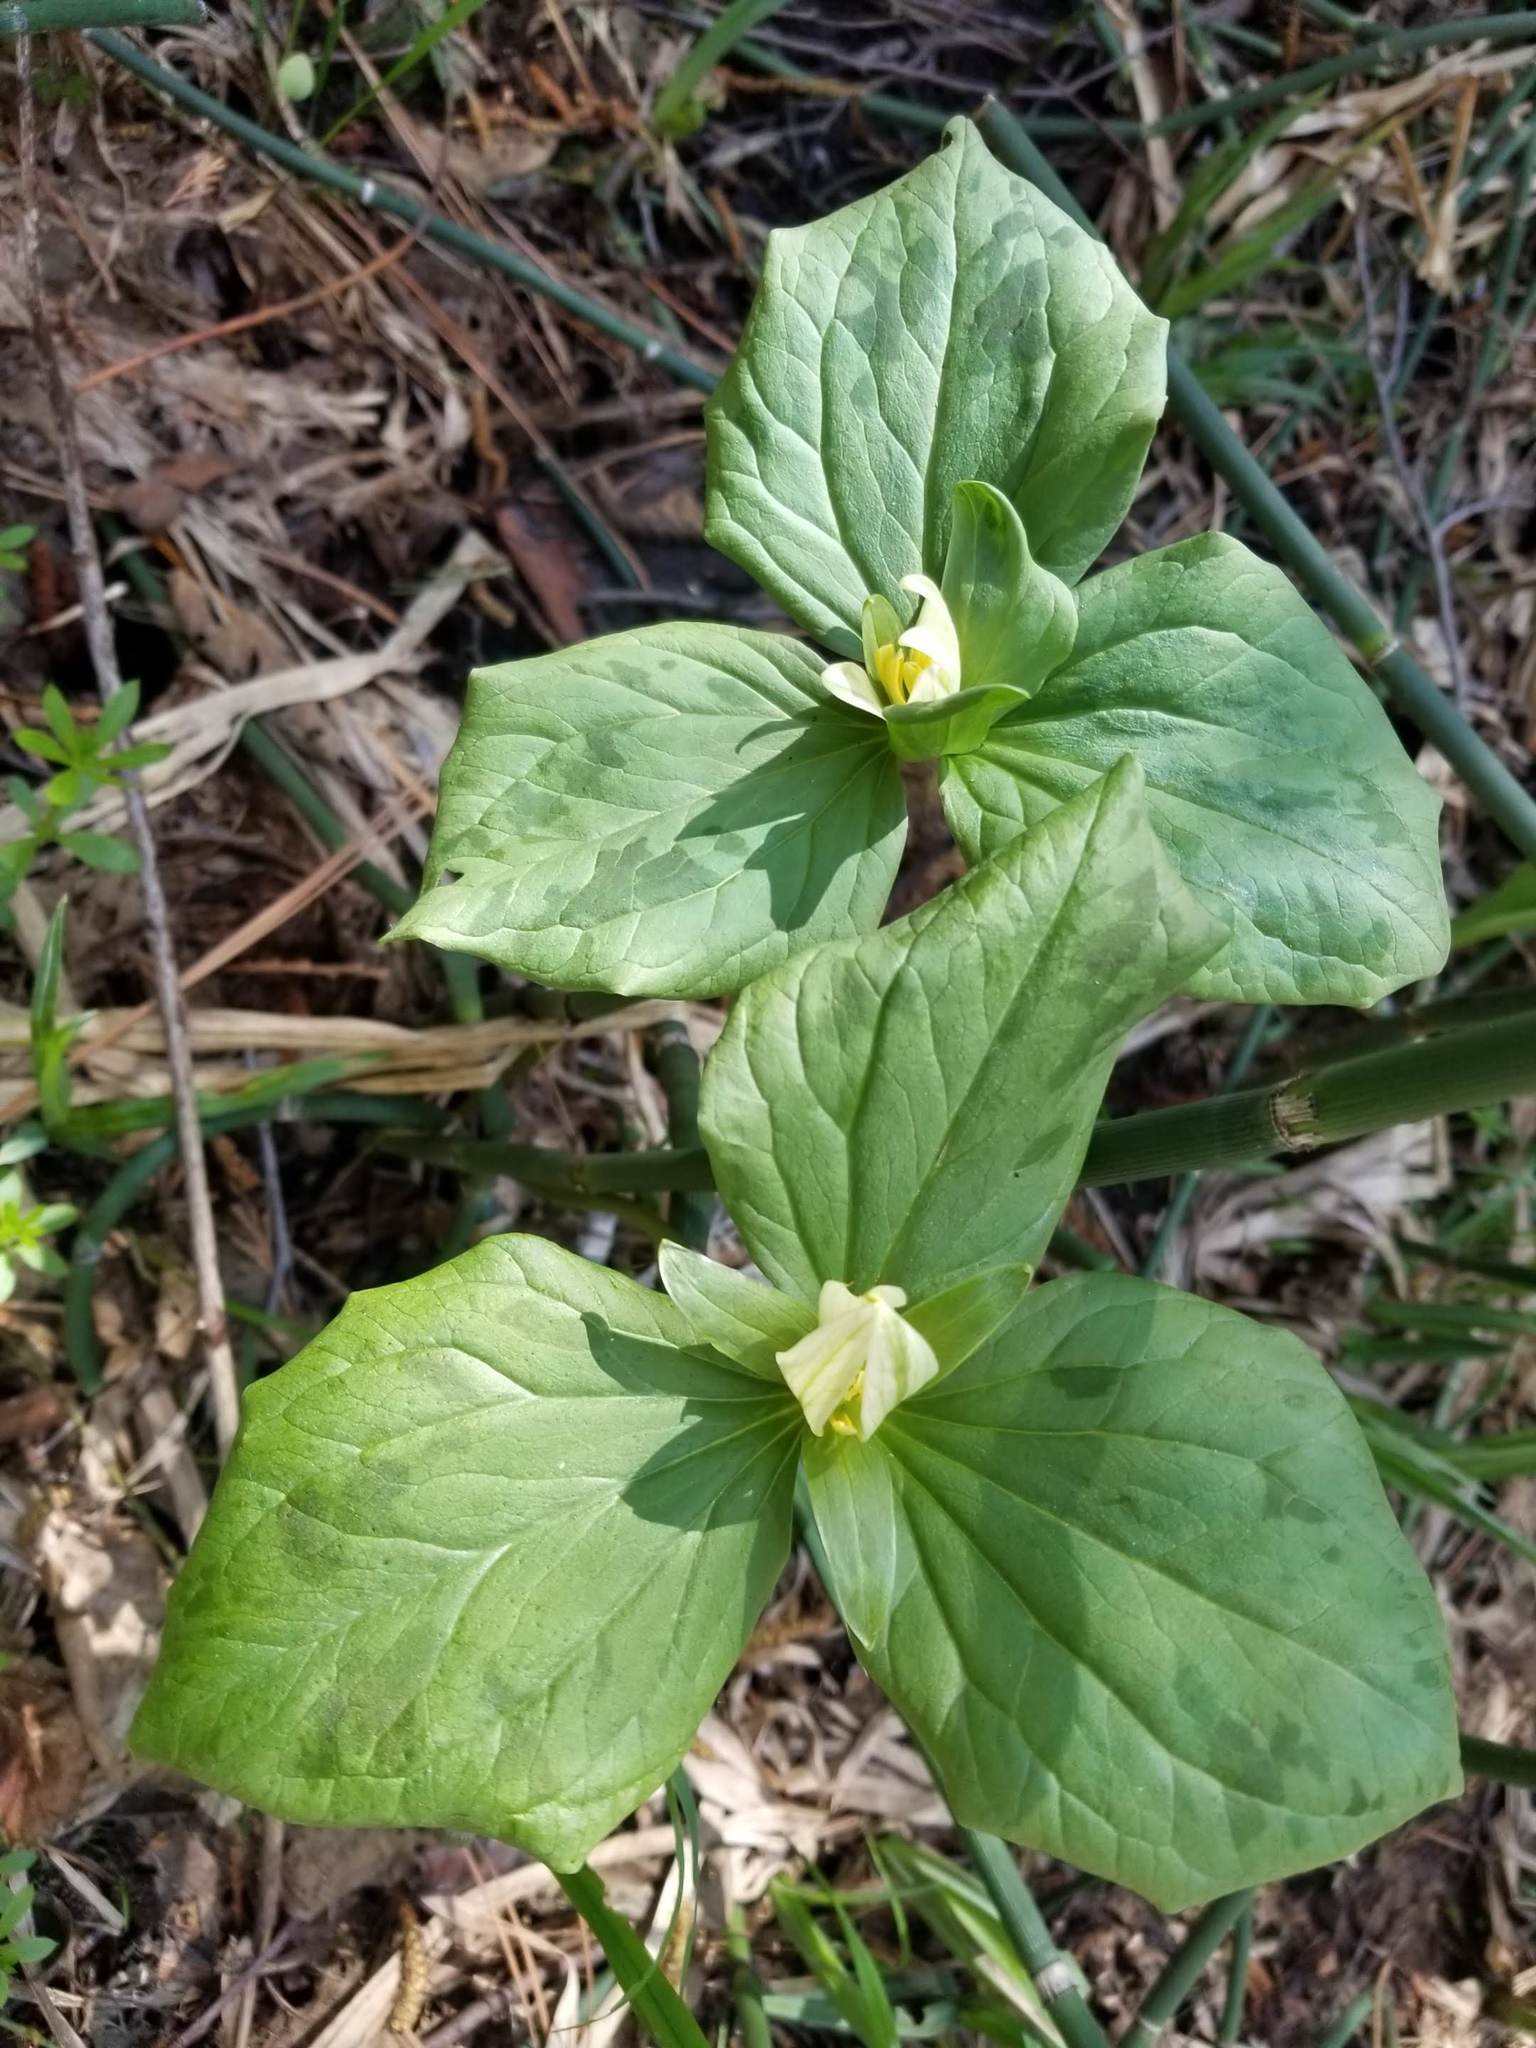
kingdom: Plantae
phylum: Tracheophyta
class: Liliopsida
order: Liliales
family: Melanthiaceae
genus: Trillium
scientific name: Trillium albidum
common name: Freeman's trillium
